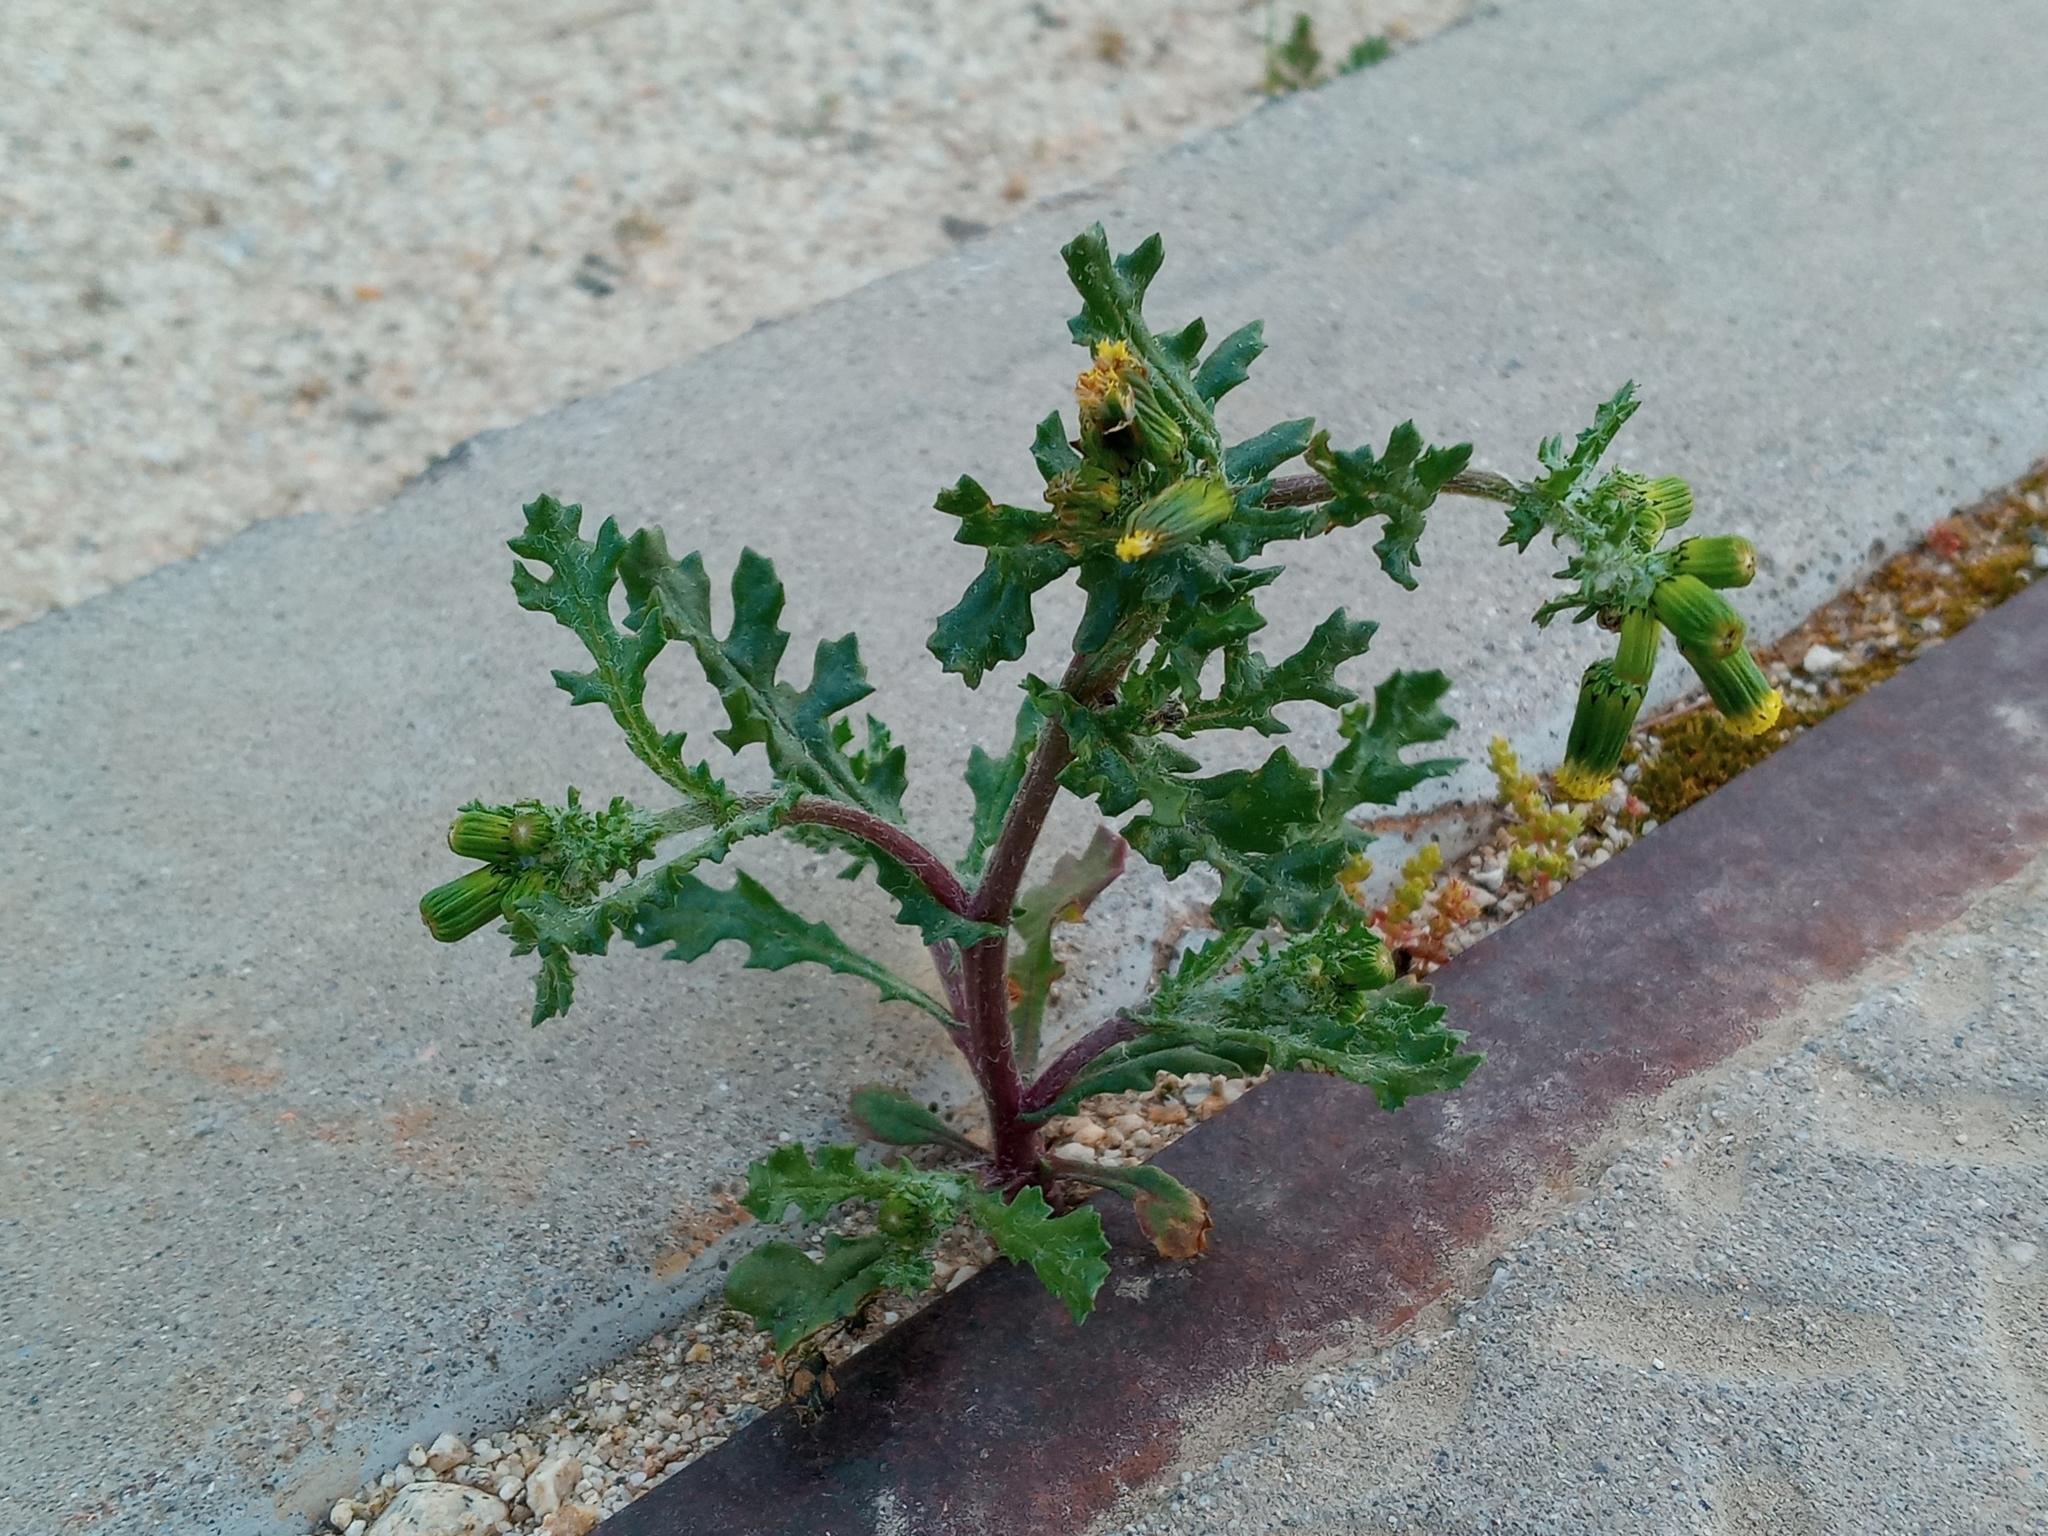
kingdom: Plantae
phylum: Tracheophyta
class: Magnoliopsida
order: Asterales
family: Asteraceae
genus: Senecio
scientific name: Senecio vulgaris
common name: Old-man-in-the-spring
